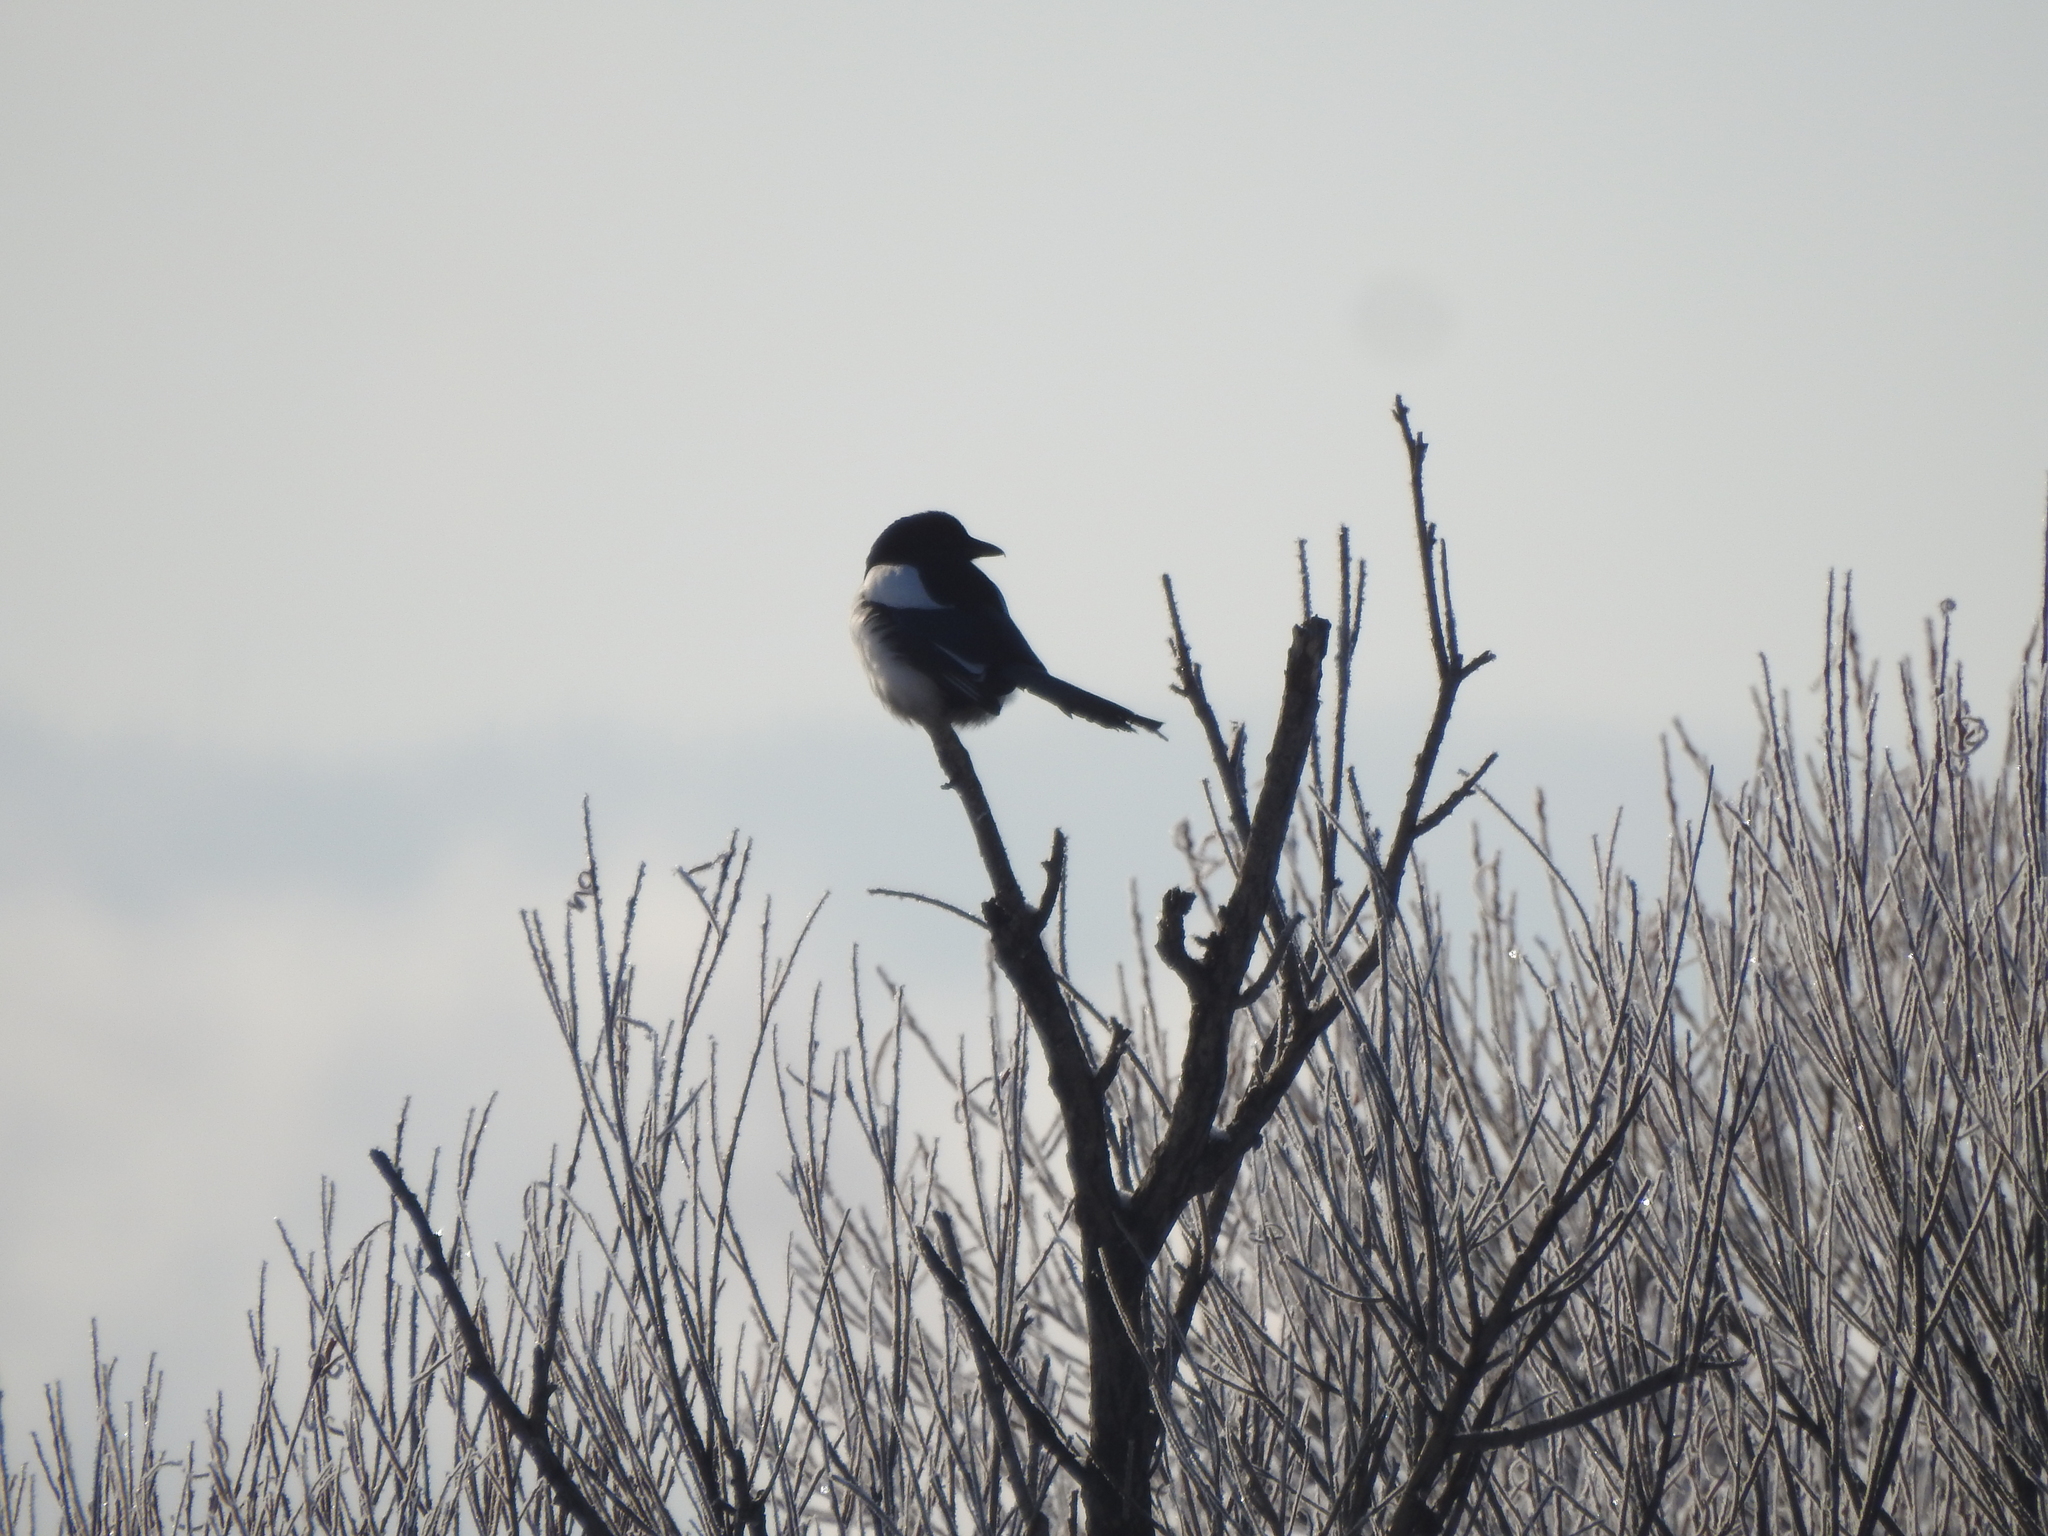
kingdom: Animalia
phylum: Chordata
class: Aves
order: Passeriformes
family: Corvidae
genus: Pica
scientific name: Pica pica
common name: Eurasian magpie
